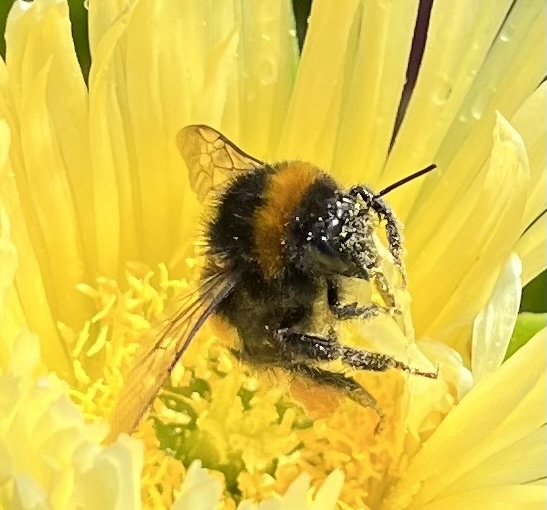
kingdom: Animalia
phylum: Arthropoda
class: Insecta
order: Hymenoptera
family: Apidae
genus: Bombus
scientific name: Bombus terrestris
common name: Buff-tailed bumblebee
